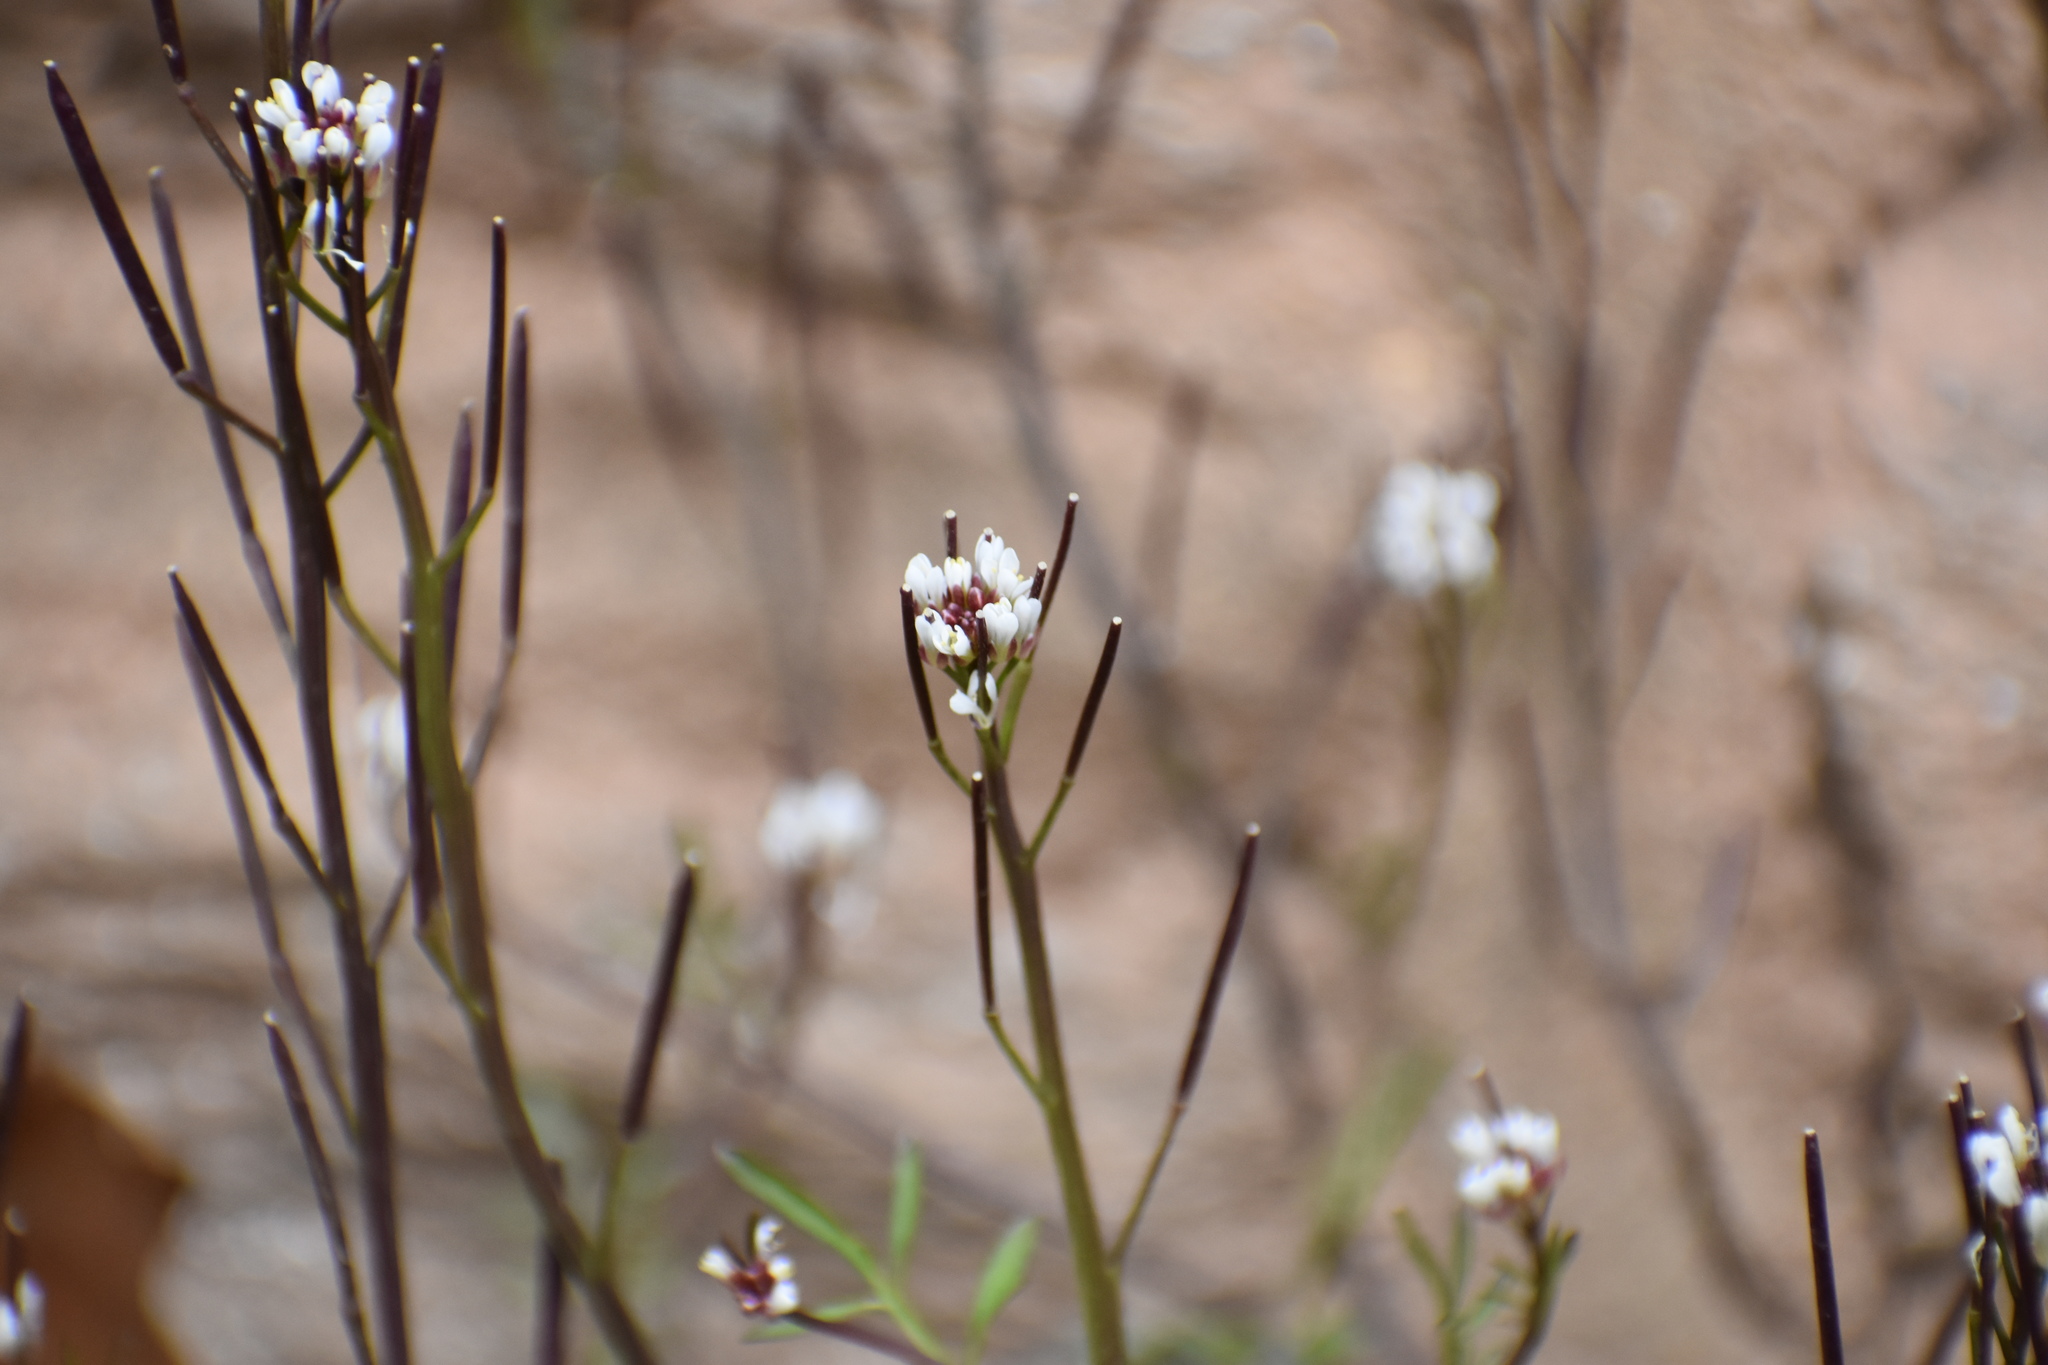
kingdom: Plantae
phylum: Tracheophyta
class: Magnoliopsida
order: Brassicales
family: Brassicaceae
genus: Cardamine
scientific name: Cardamine hirsuta
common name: Hairy bittercress
